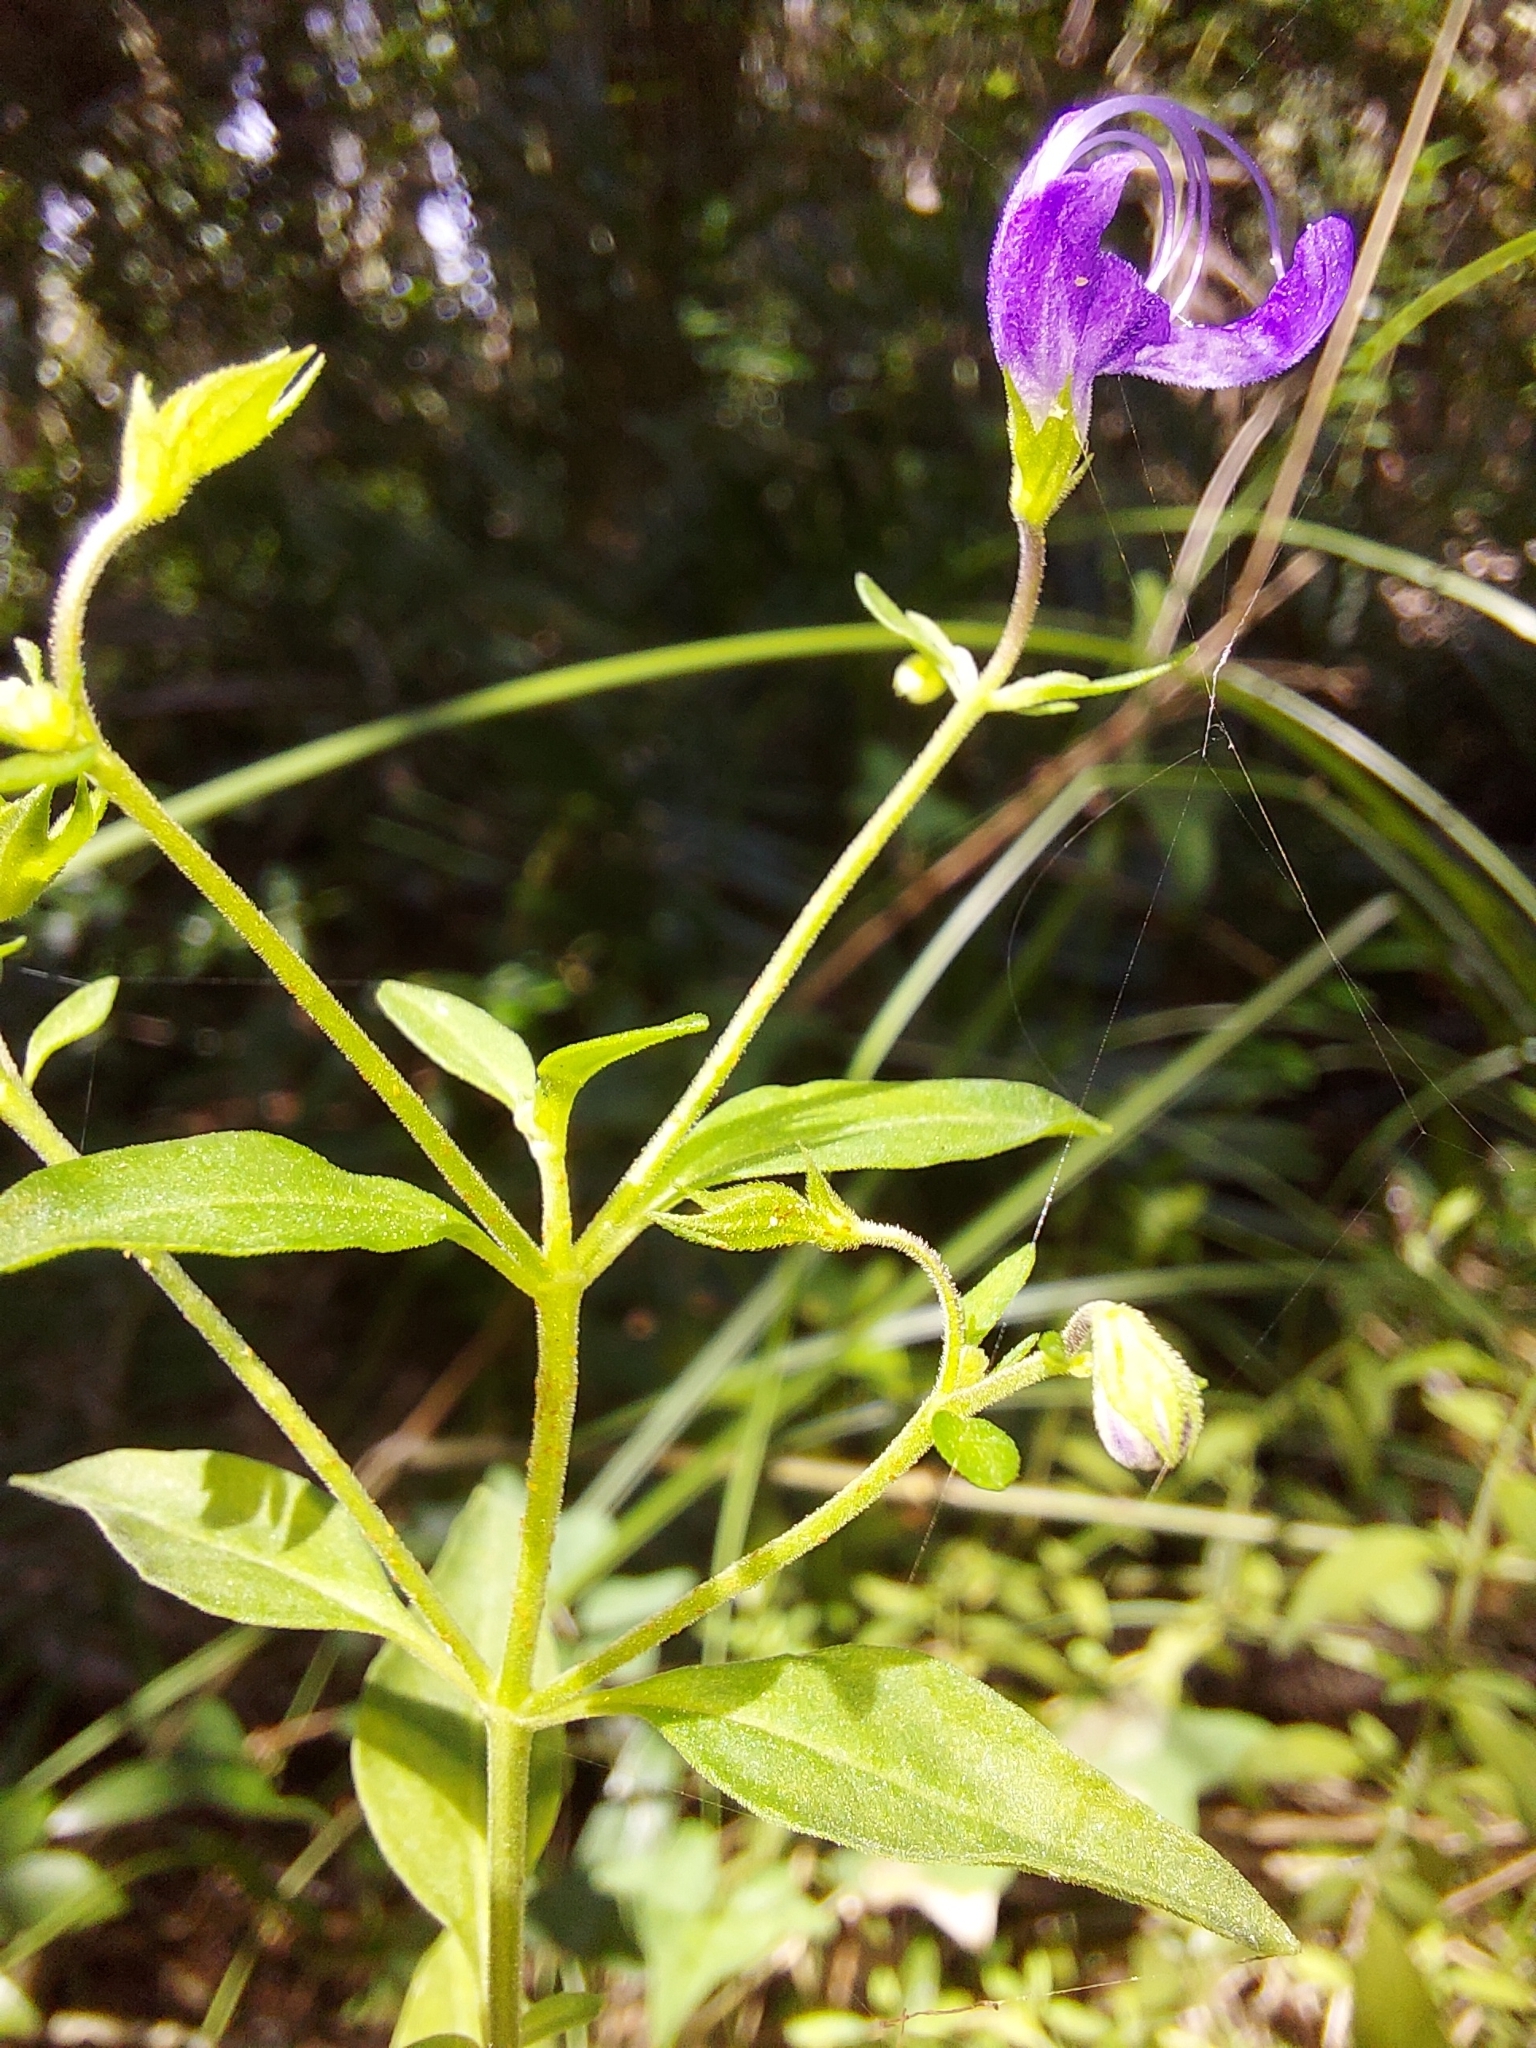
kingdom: Plantae
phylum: Tracheophyta
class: Magnoliopsida
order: Lamiales
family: Lamiaceae
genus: Trichostema
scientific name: Trichostema fruticosum
